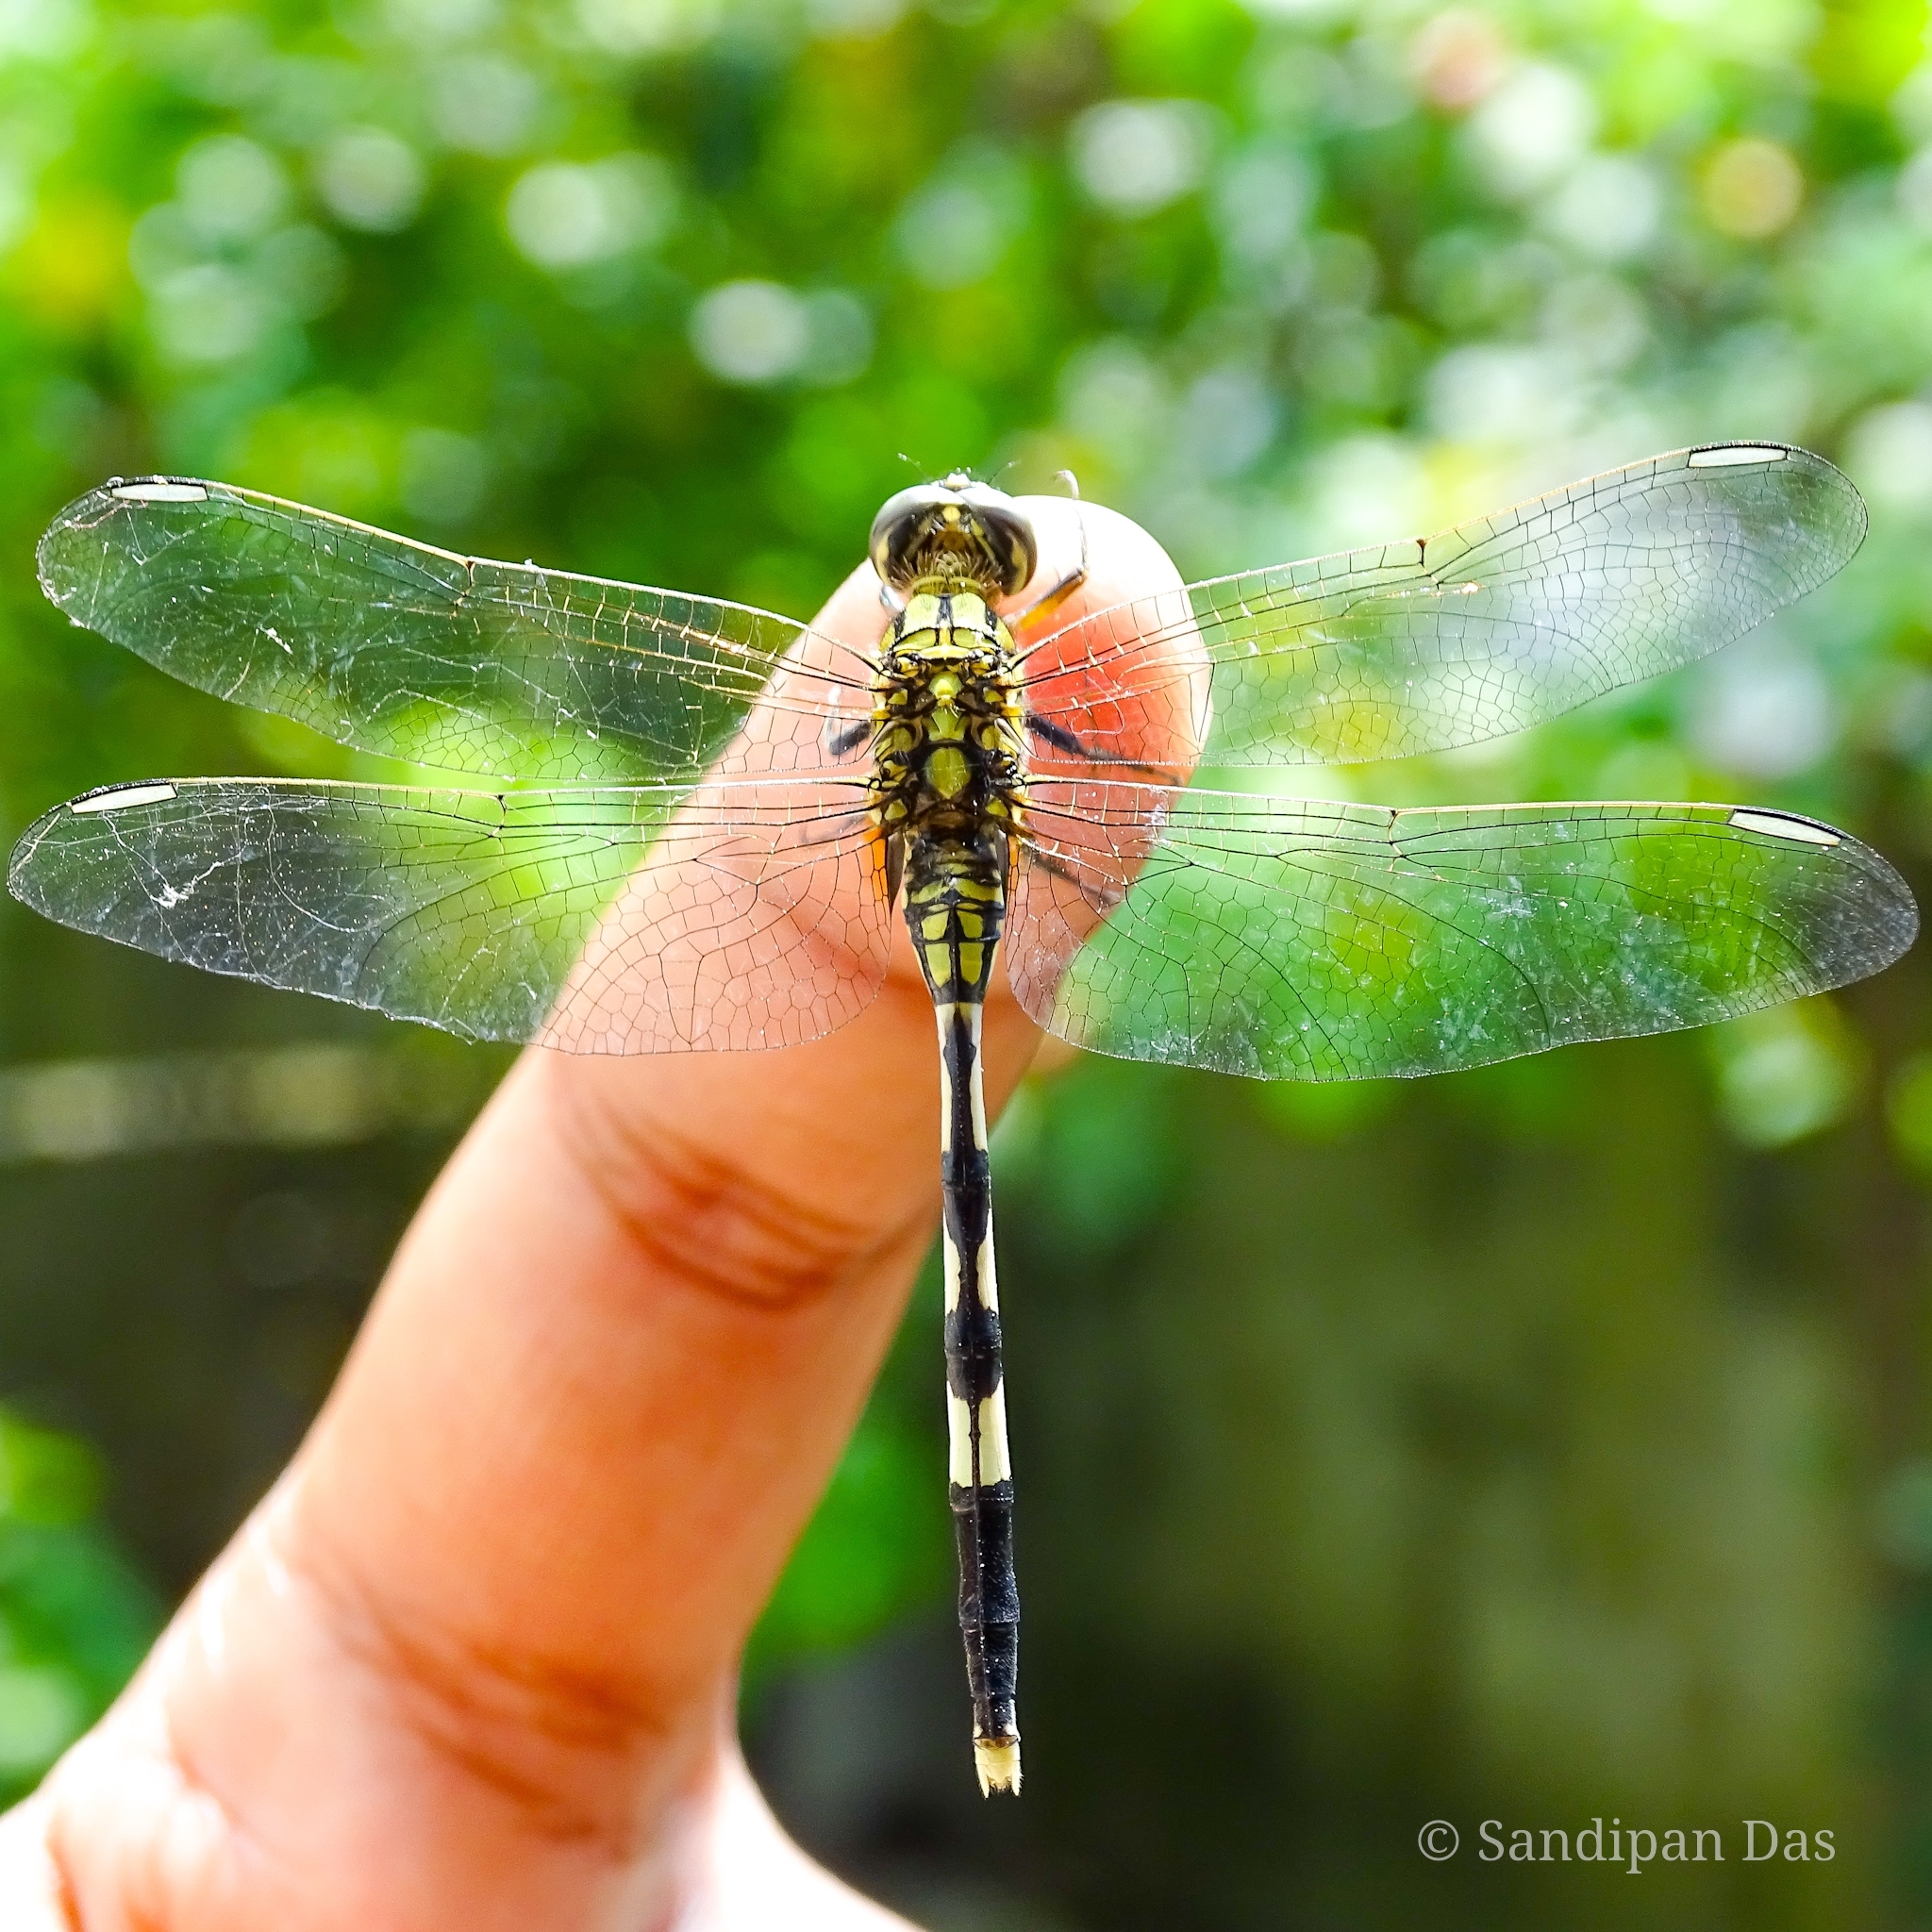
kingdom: Animalia
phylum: Arthropoda
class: Insecta
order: Odonata
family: Libellulidae
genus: Orthetrum
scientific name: Orthetrum sabina
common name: Slender skimmer
